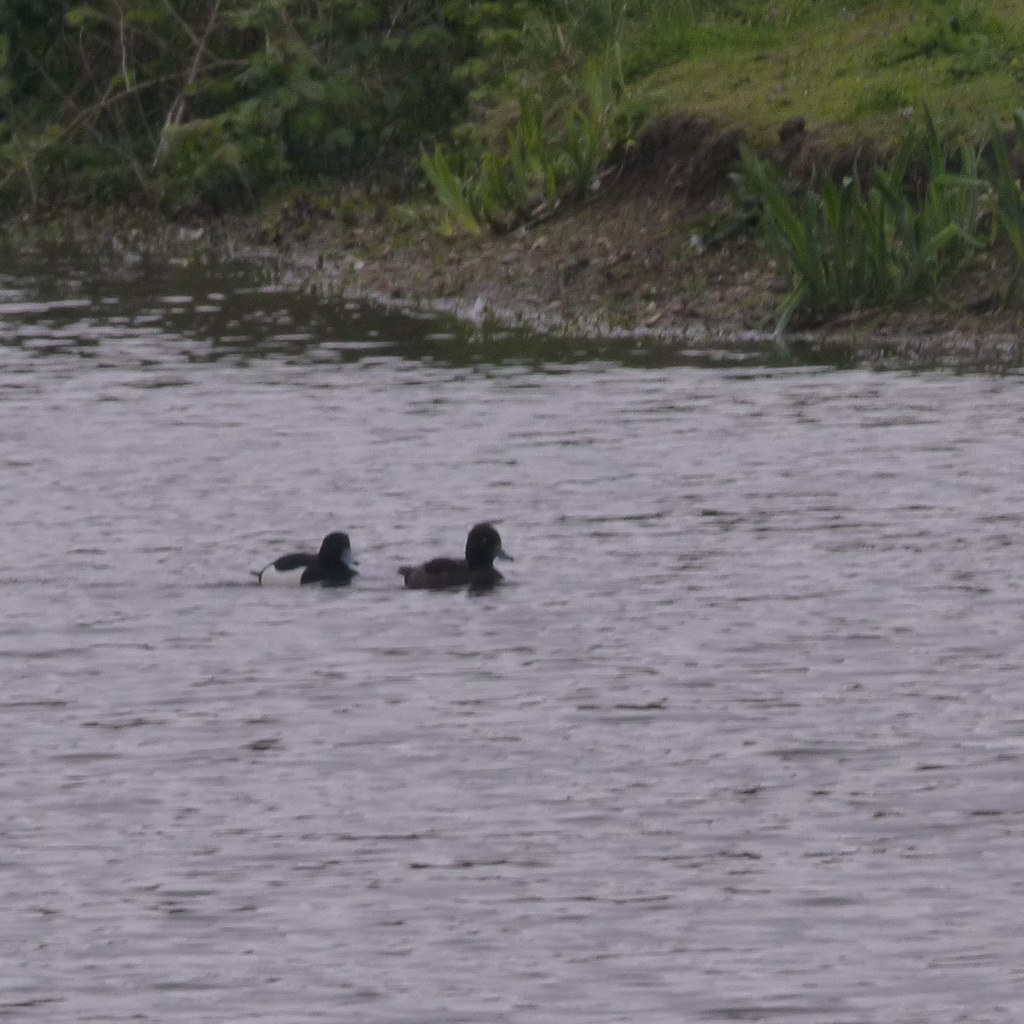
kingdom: Animalia
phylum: Chordata
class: Aves
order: Anseriformes
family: Anatidae
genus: Aythya
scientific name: Aythya fuligula
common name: Tufted duck
